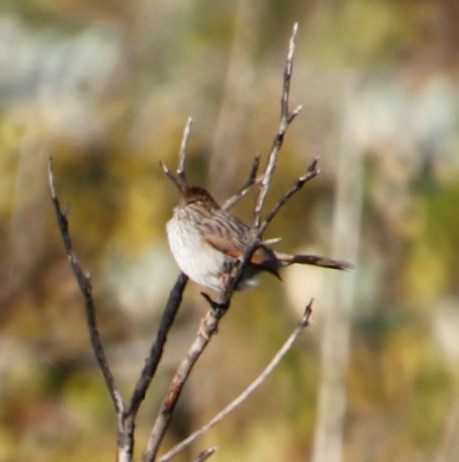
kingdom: Animalia
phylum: Chordata
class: Aves
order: Passeriformes
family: Cisticolidae
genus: Cisticola
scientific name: Cisticola subruficapilla
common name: Grey-backed cisticola
